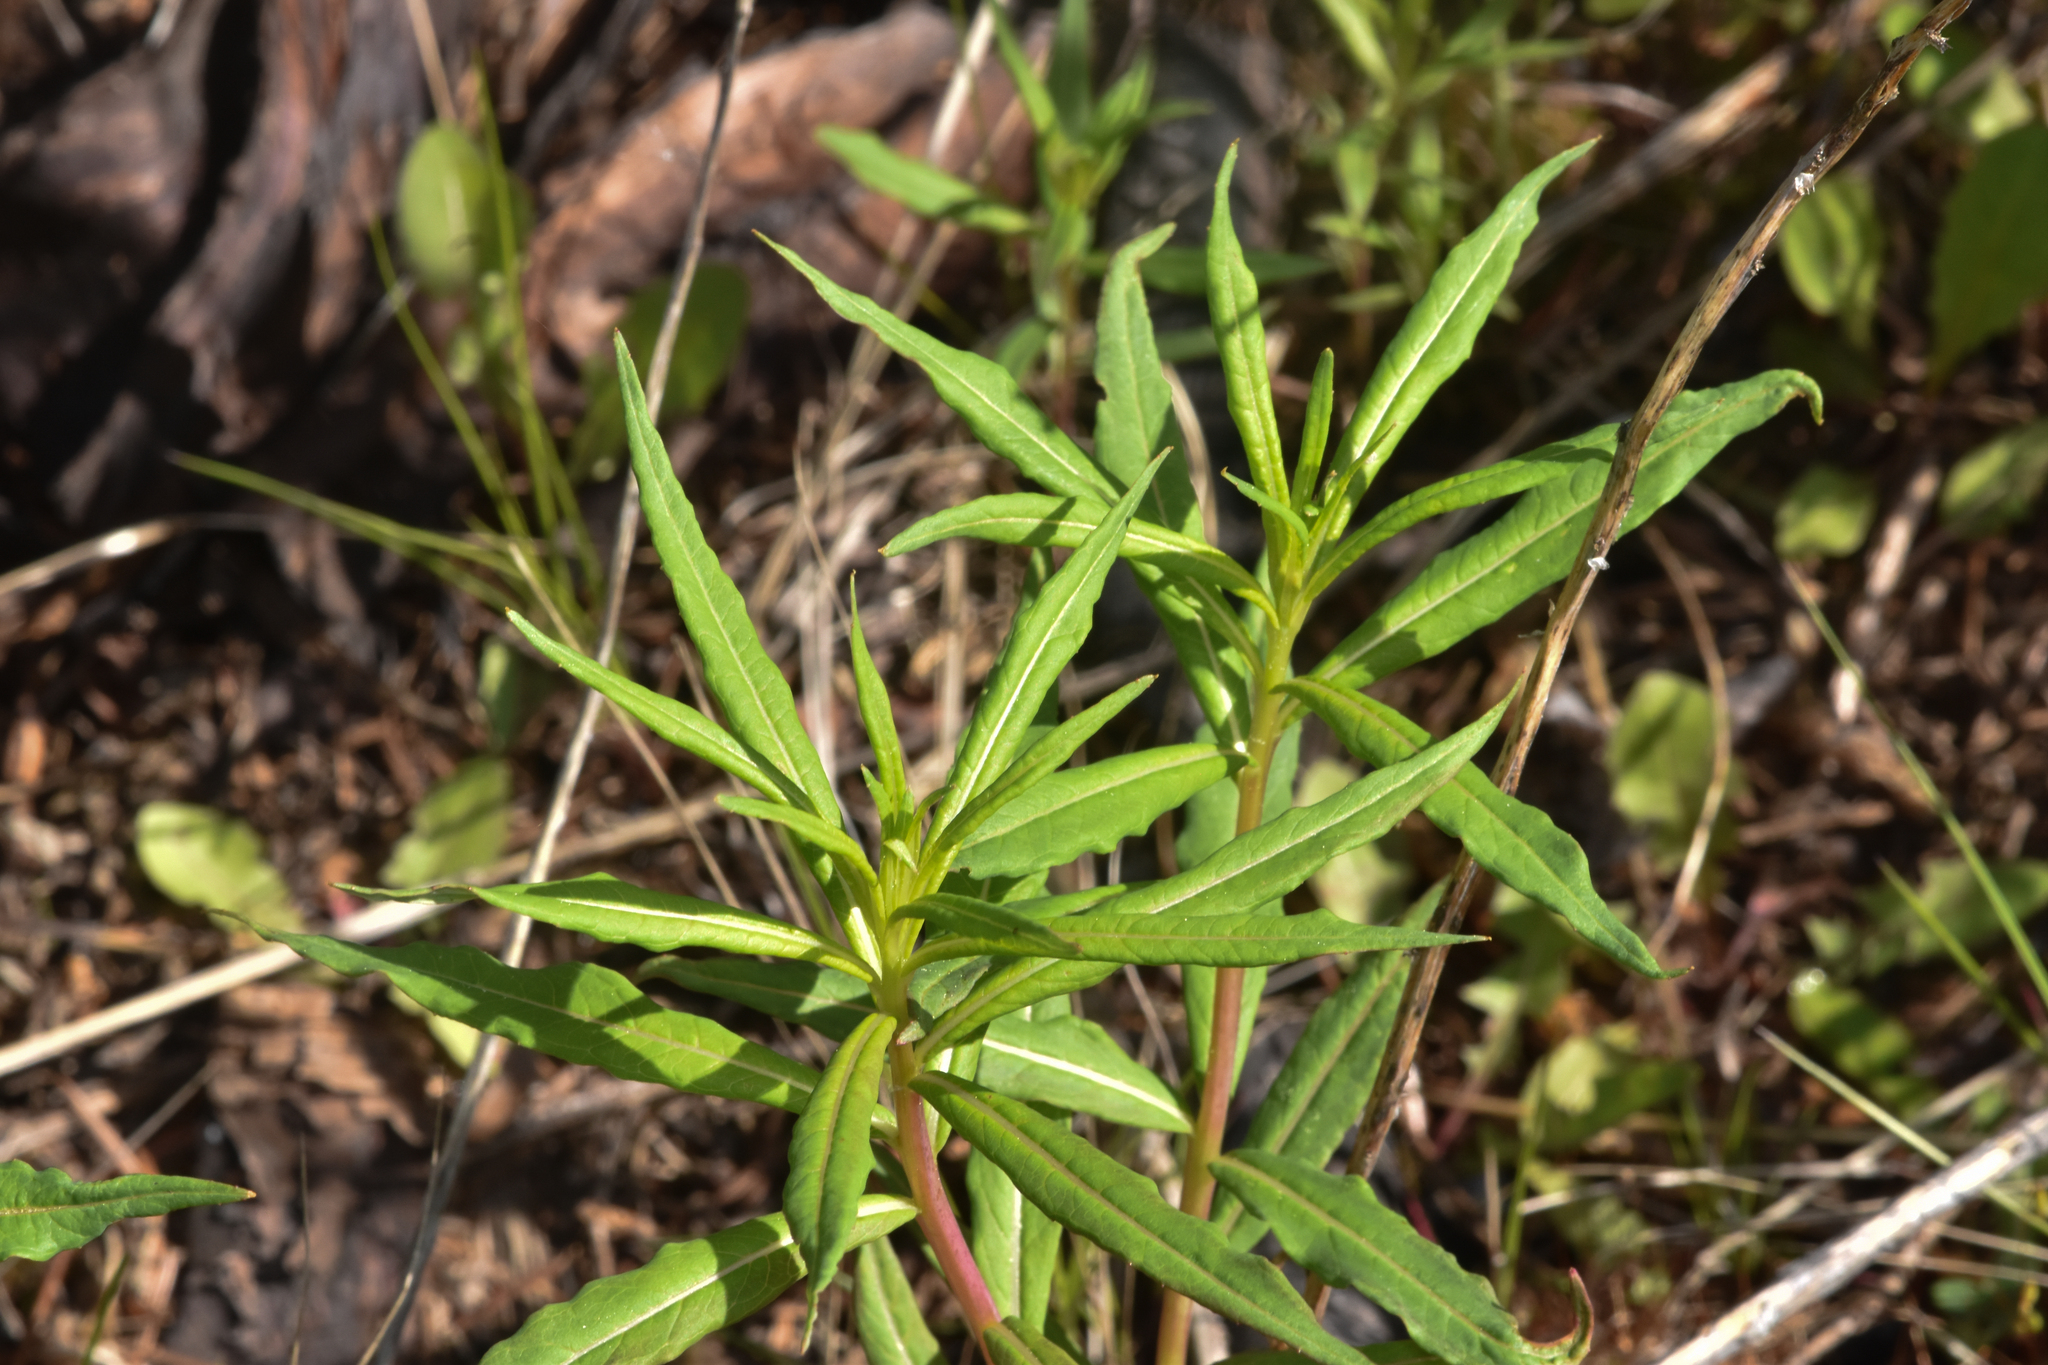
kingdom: Plantae
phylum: Tracheophyta
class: Magnoliopsida
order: Myrtales
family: Onagraceae
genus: Chamaenerion
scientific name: Chamaenerion angustifolium
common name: Fireweed
